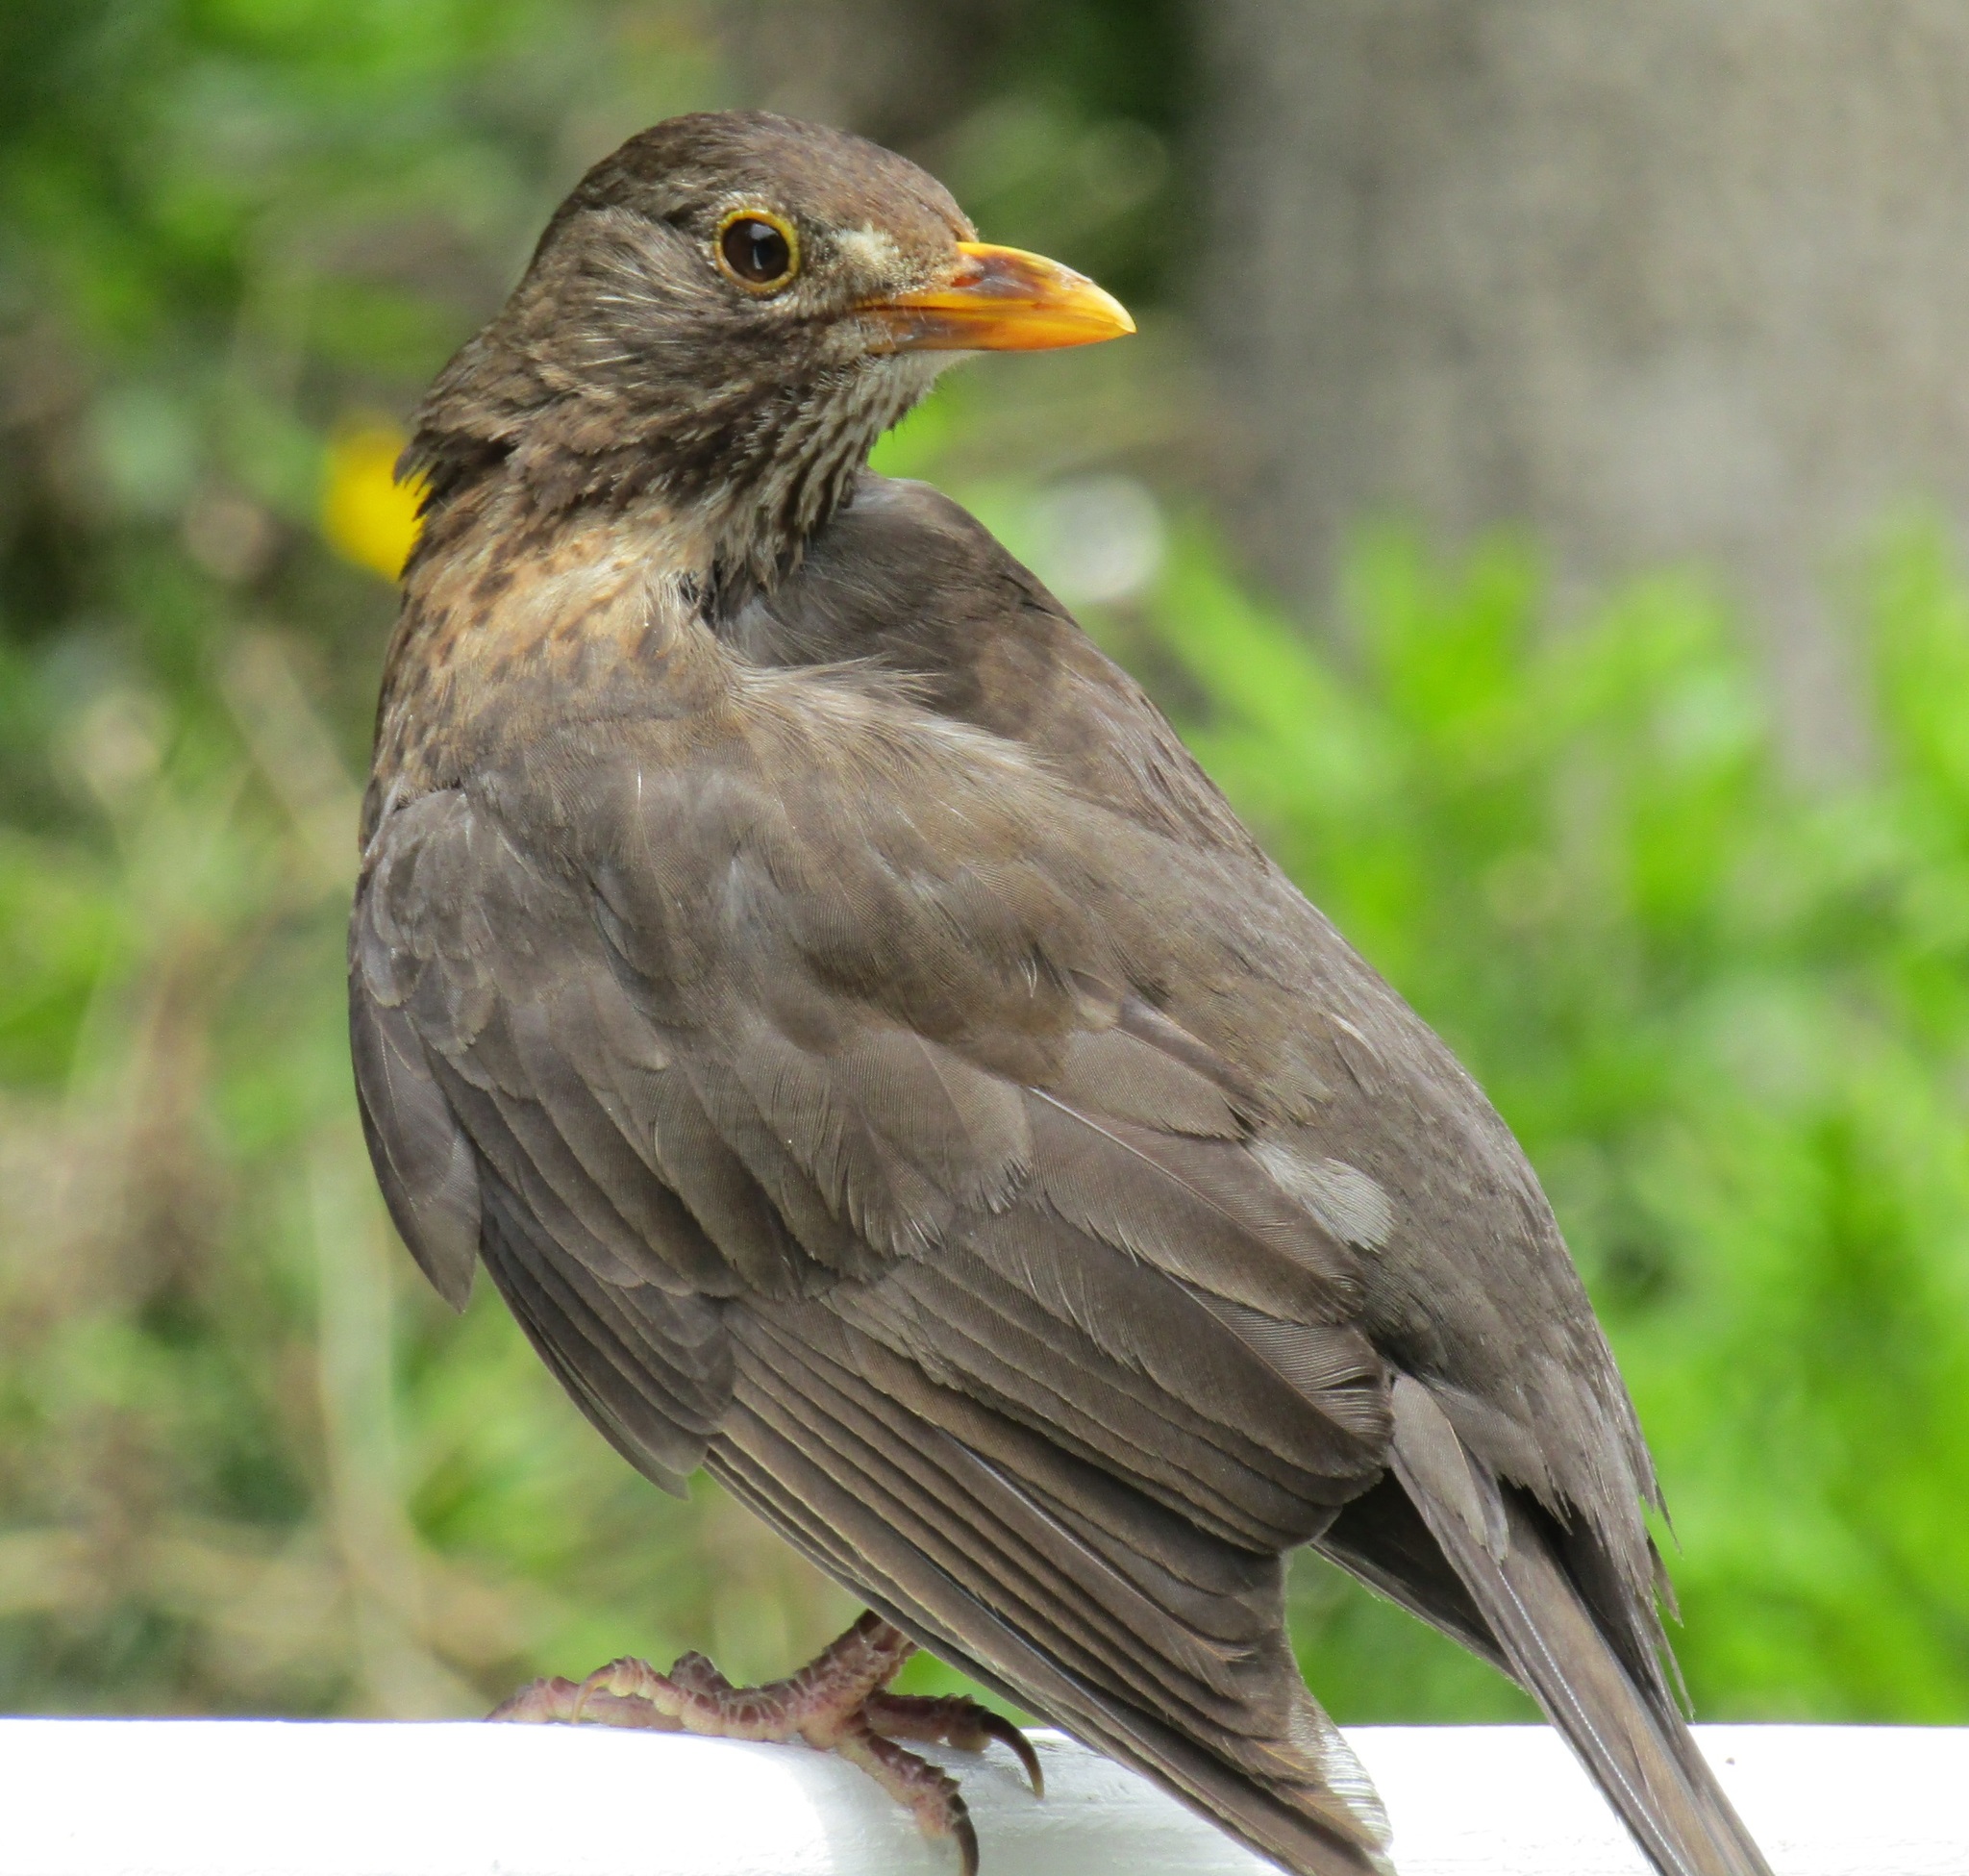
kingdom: Animalia
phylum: Chordata
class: Aves
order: Passeriformes
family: Turdidae
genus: Turdus
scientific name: Turdus merula
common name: Common blackbird
